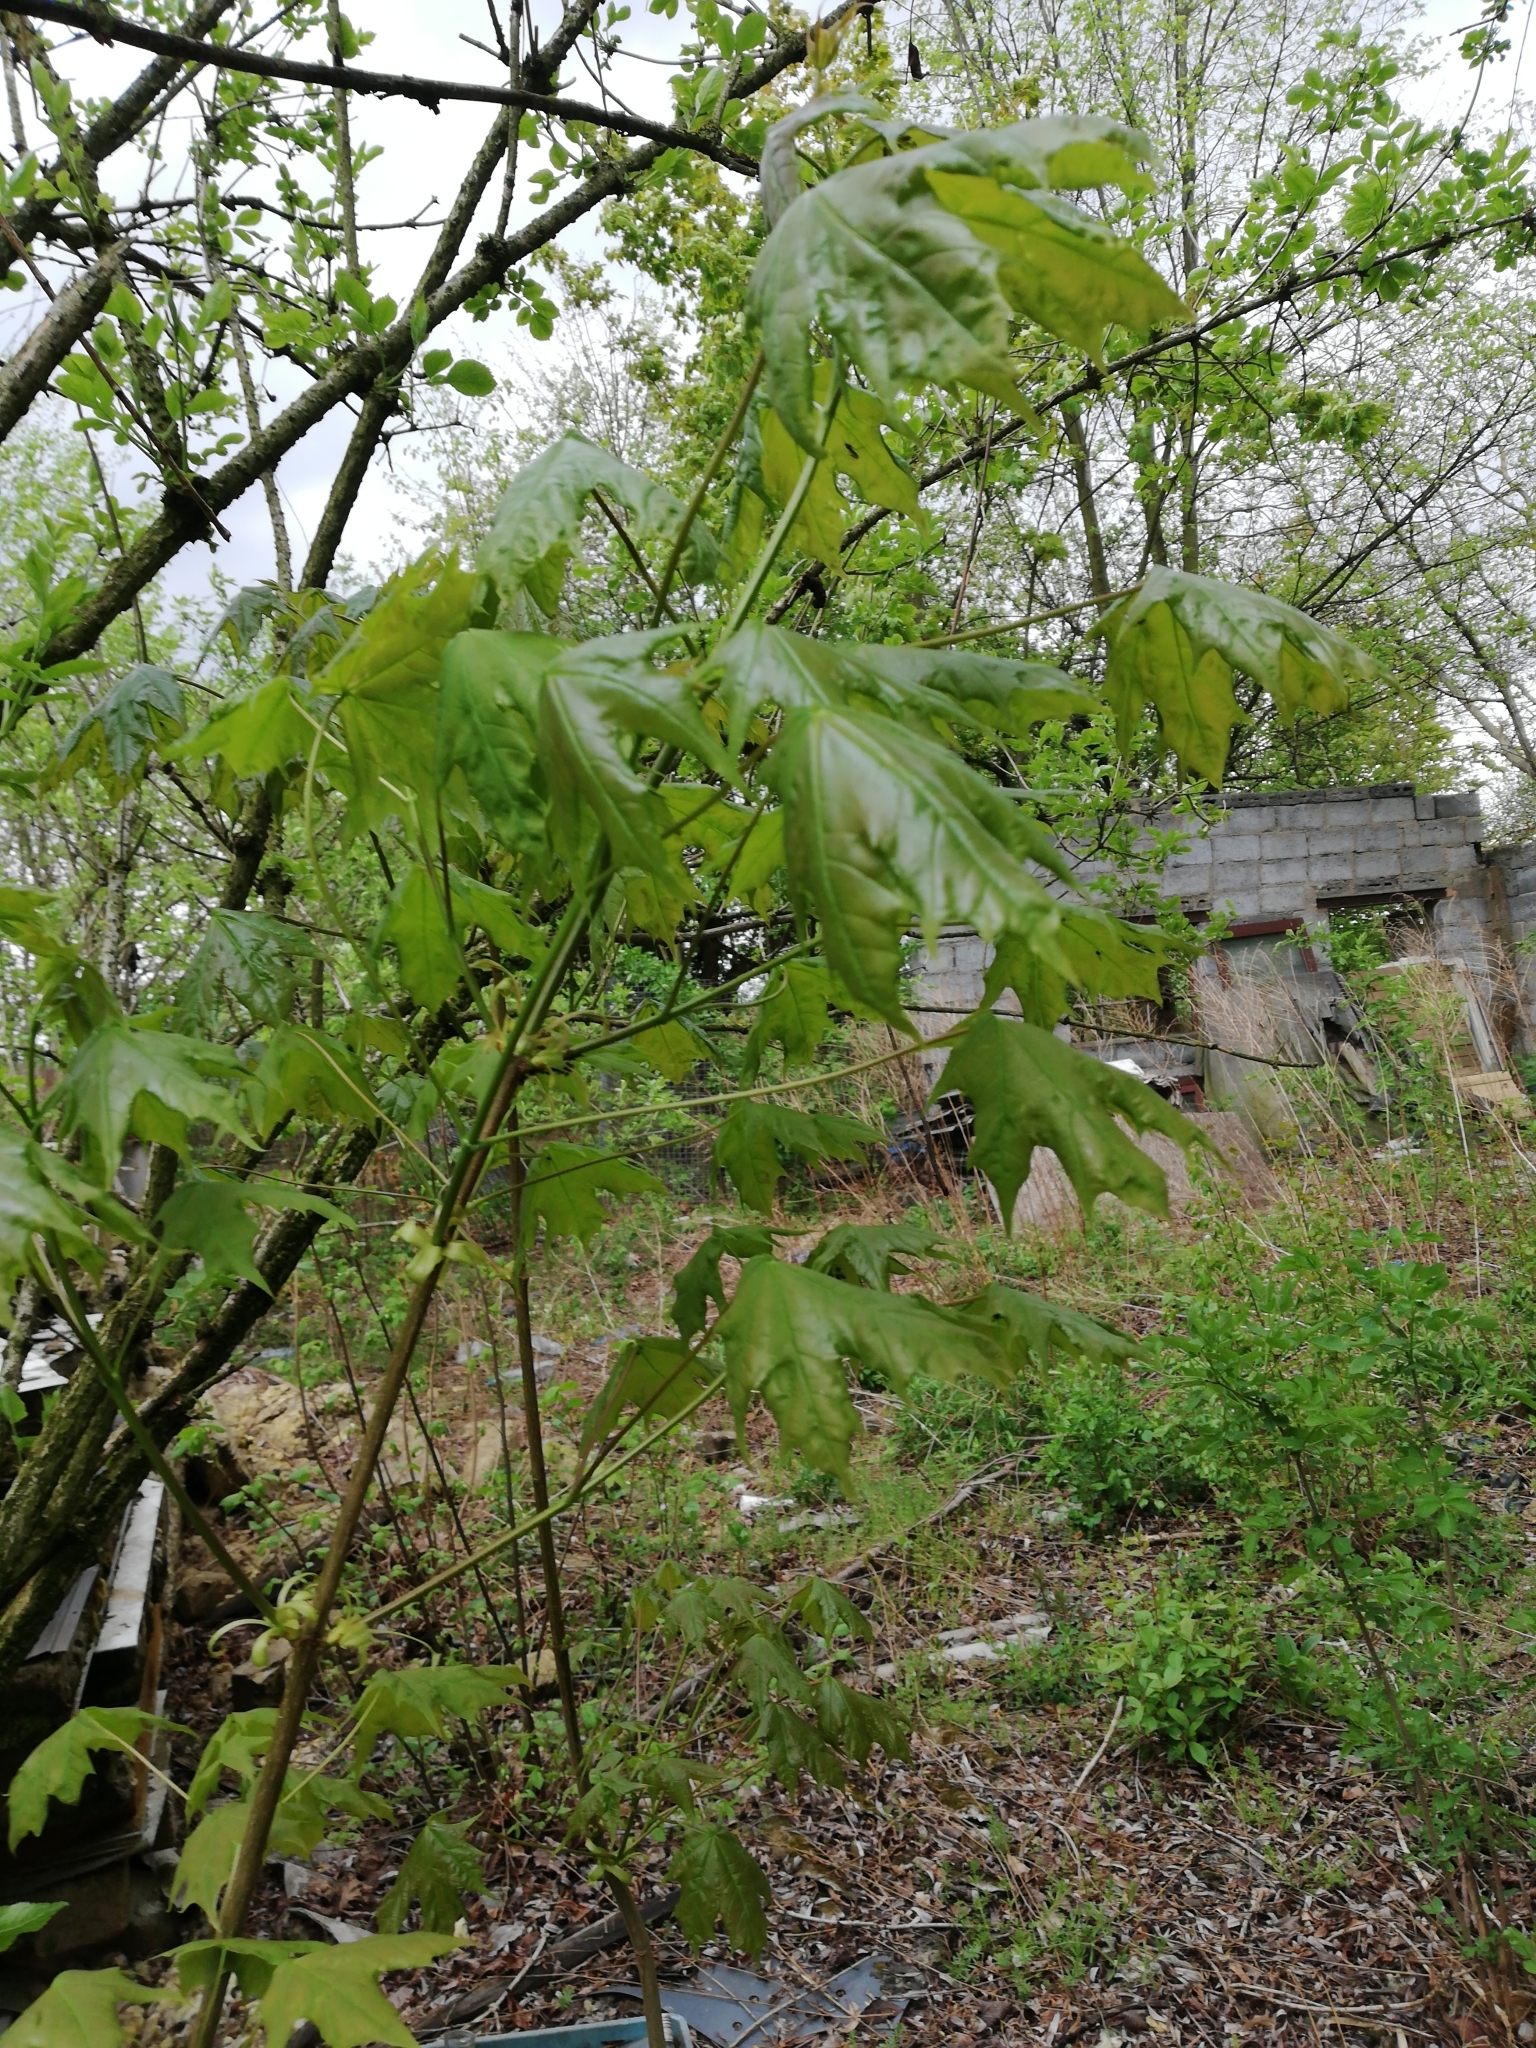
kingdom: Plantae
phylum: Tracheophyta
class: Magnoliopsida
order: Sapindales
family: Sapindaceae
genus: Acer
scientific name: Acer platanoides
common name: Norway maple
